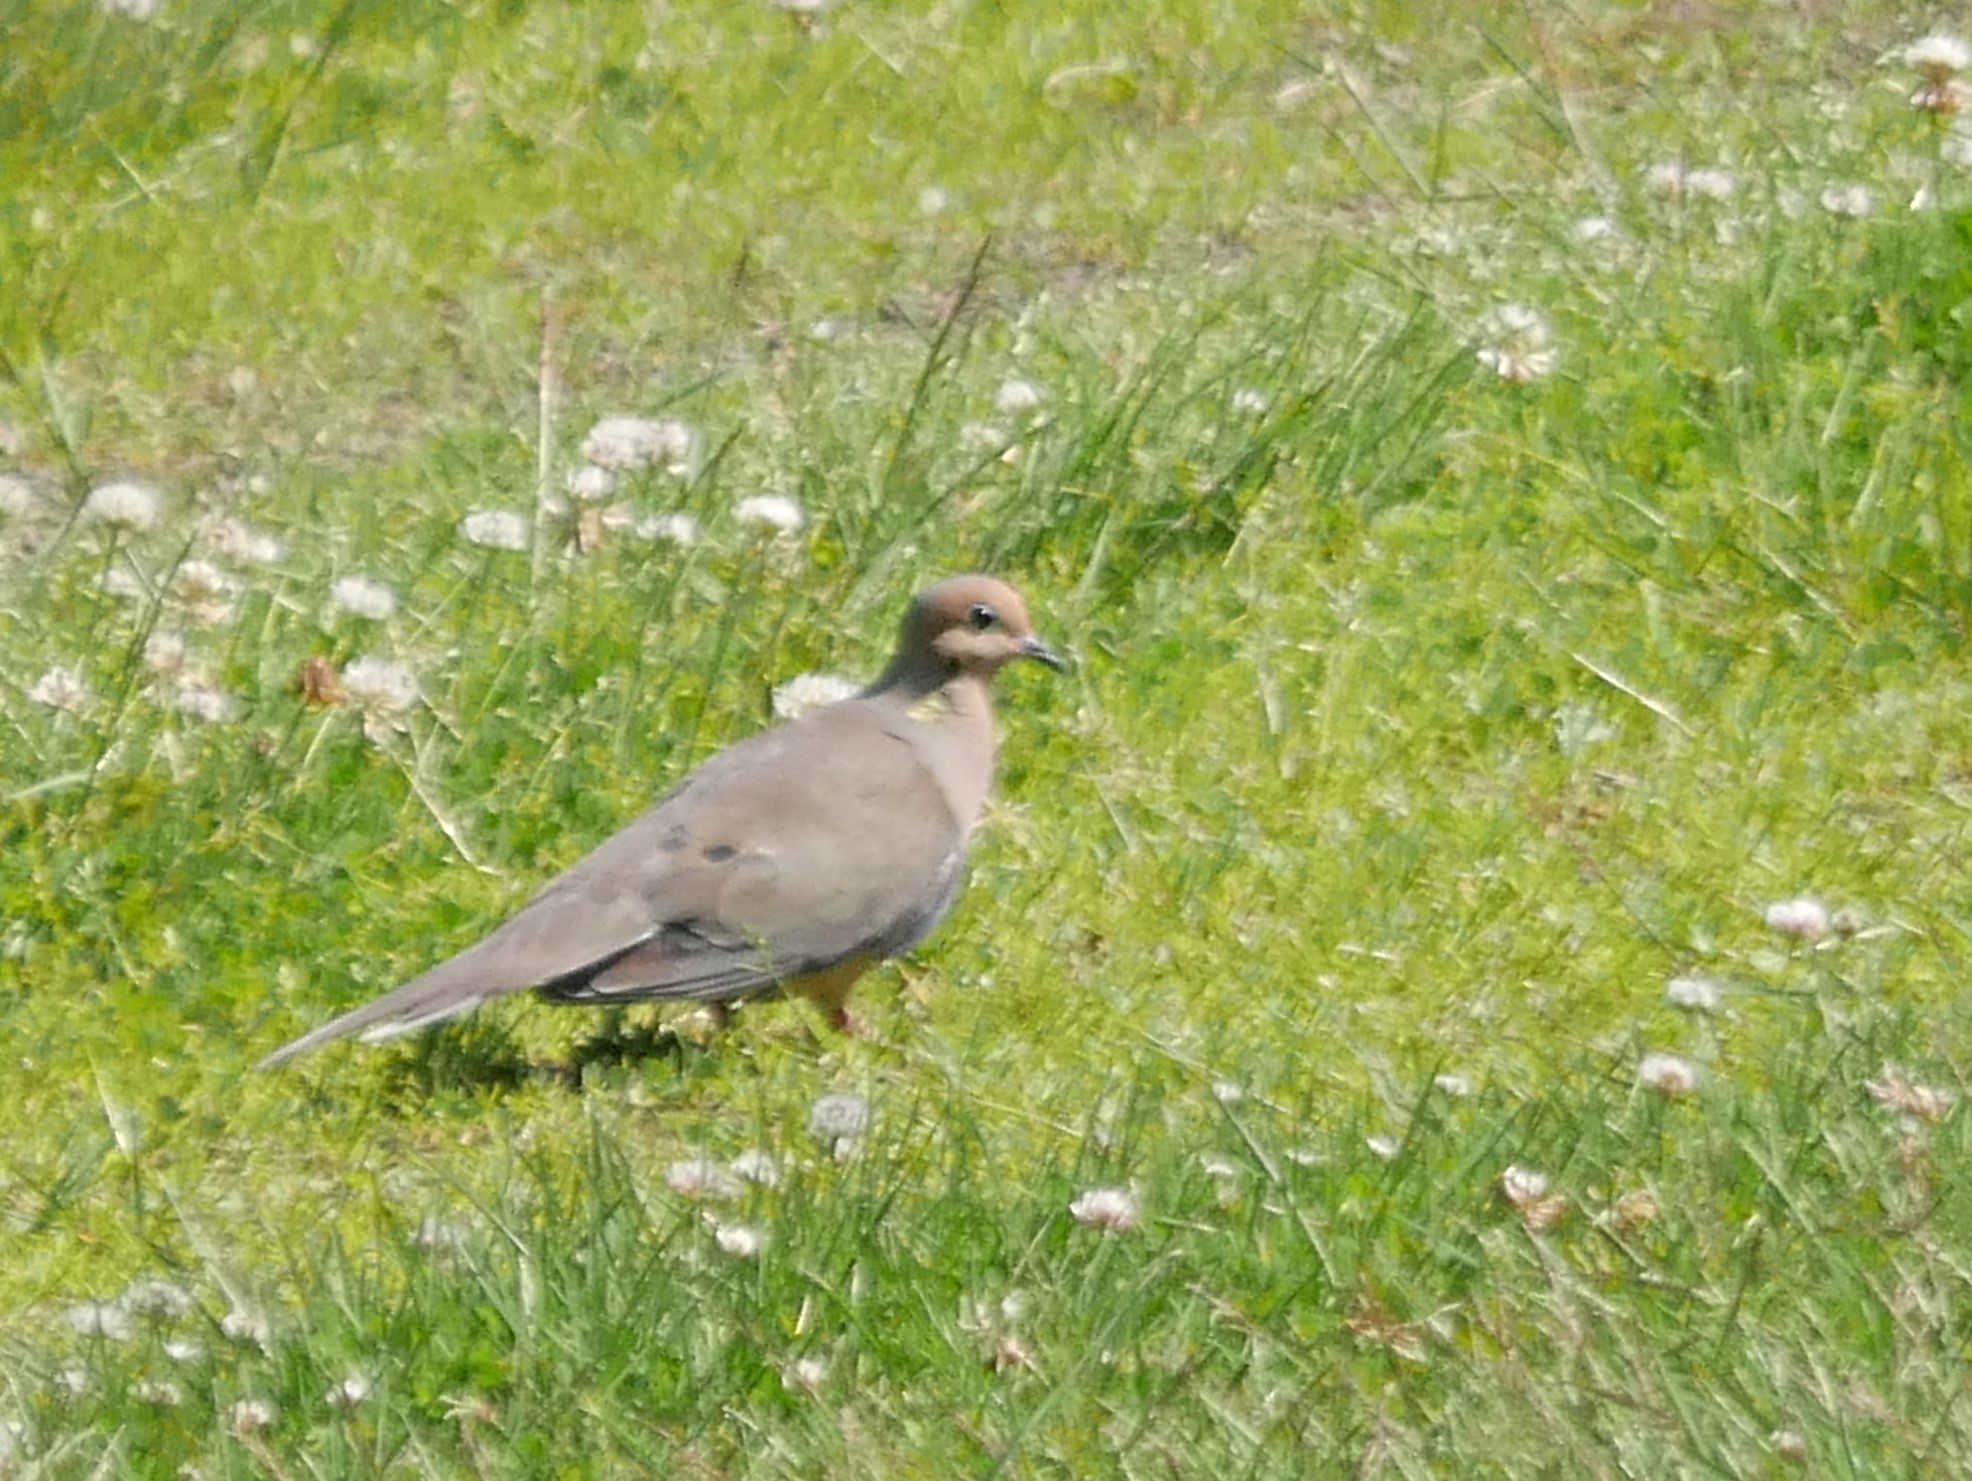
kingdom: Animalia
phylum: Chordata
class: Aves
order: Columbiformes
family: Columbidae
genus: Zenaida
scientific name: Zenaida macroura
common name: Mourning dove
